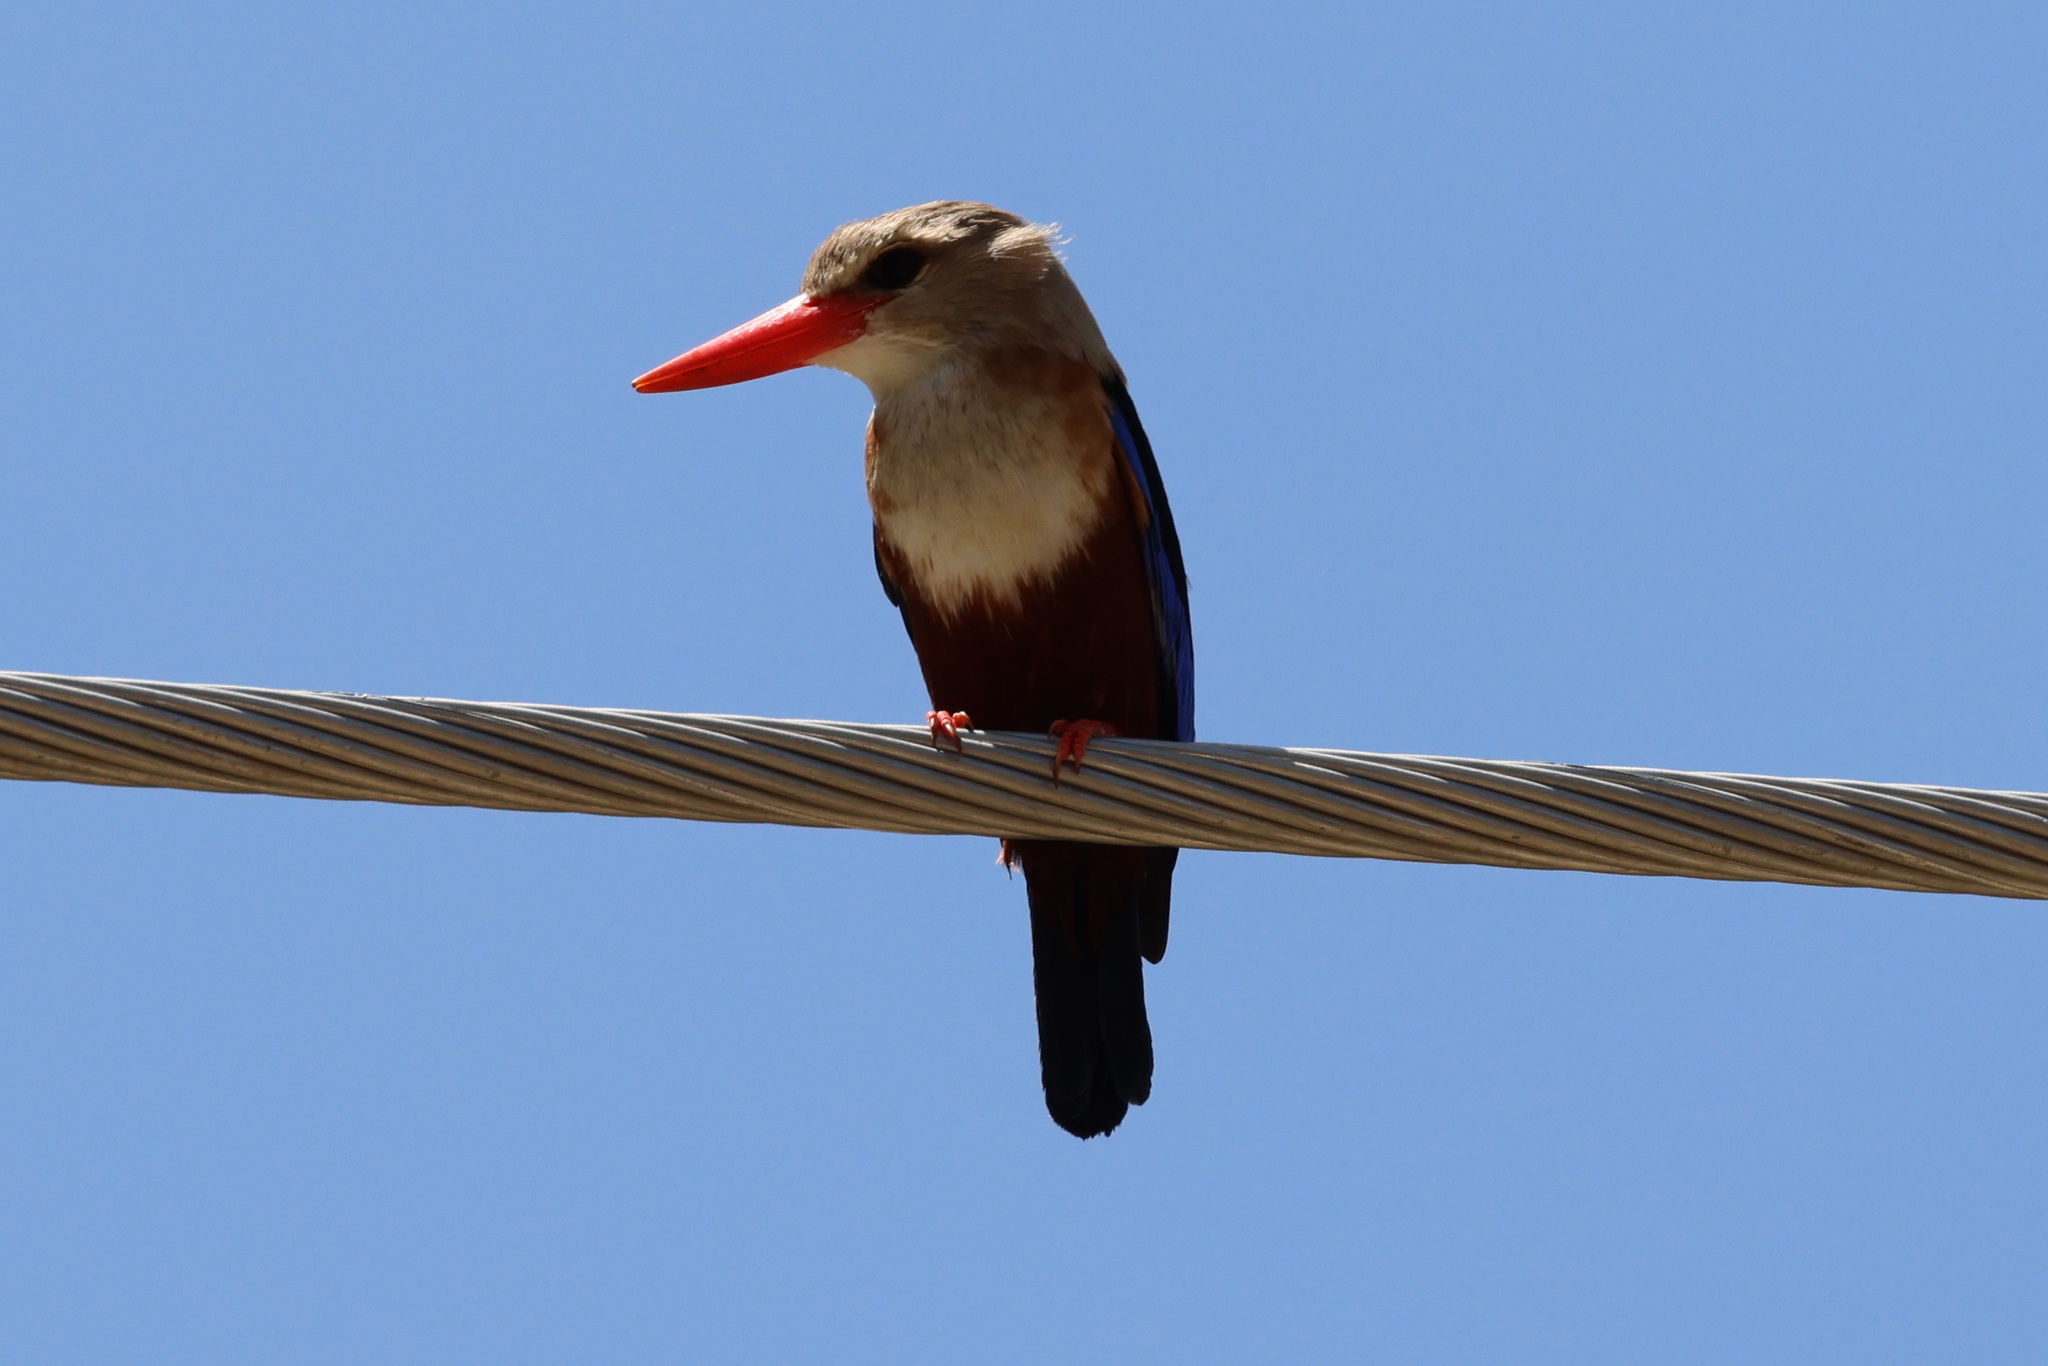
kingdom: Animalia
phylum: Chordata
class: Aves
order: Coraciiformes
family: Alcedinidae
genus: Halcyon
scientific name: Halcyon leucocephala
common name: Grey-headed kingfisher
